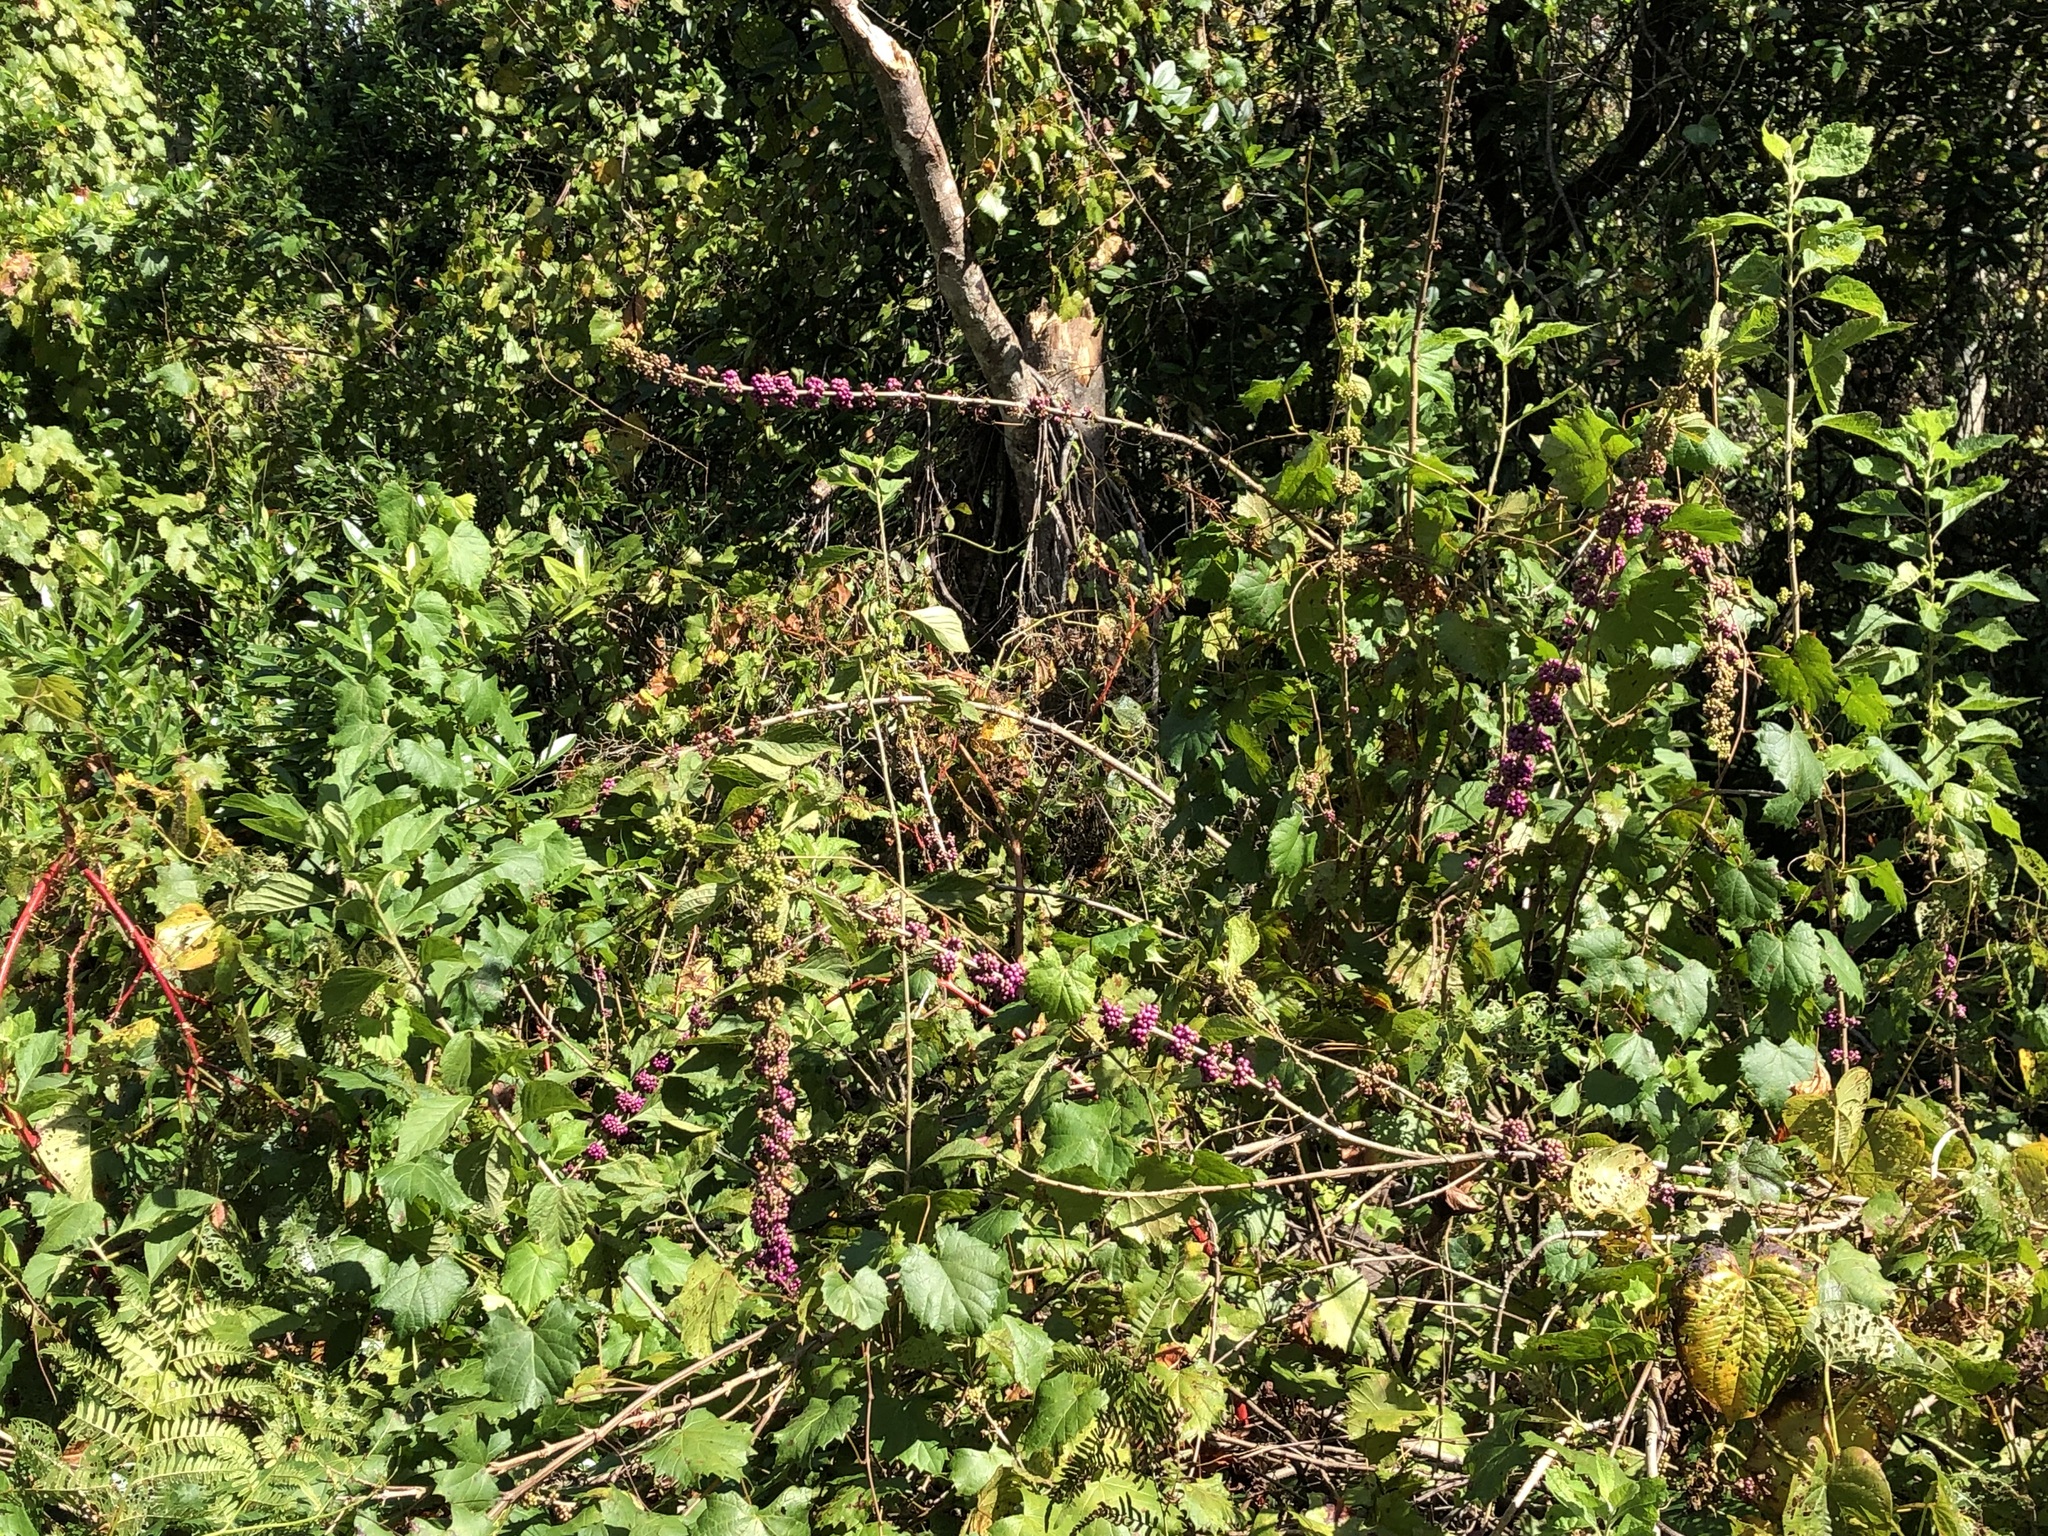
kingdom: Plantae
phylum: Tracheophyta
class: Magnoliopsida
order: Lamiales
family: Lamiaceae
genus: Callicarpa
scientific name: Callicarpa americana
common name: American beautyberry
